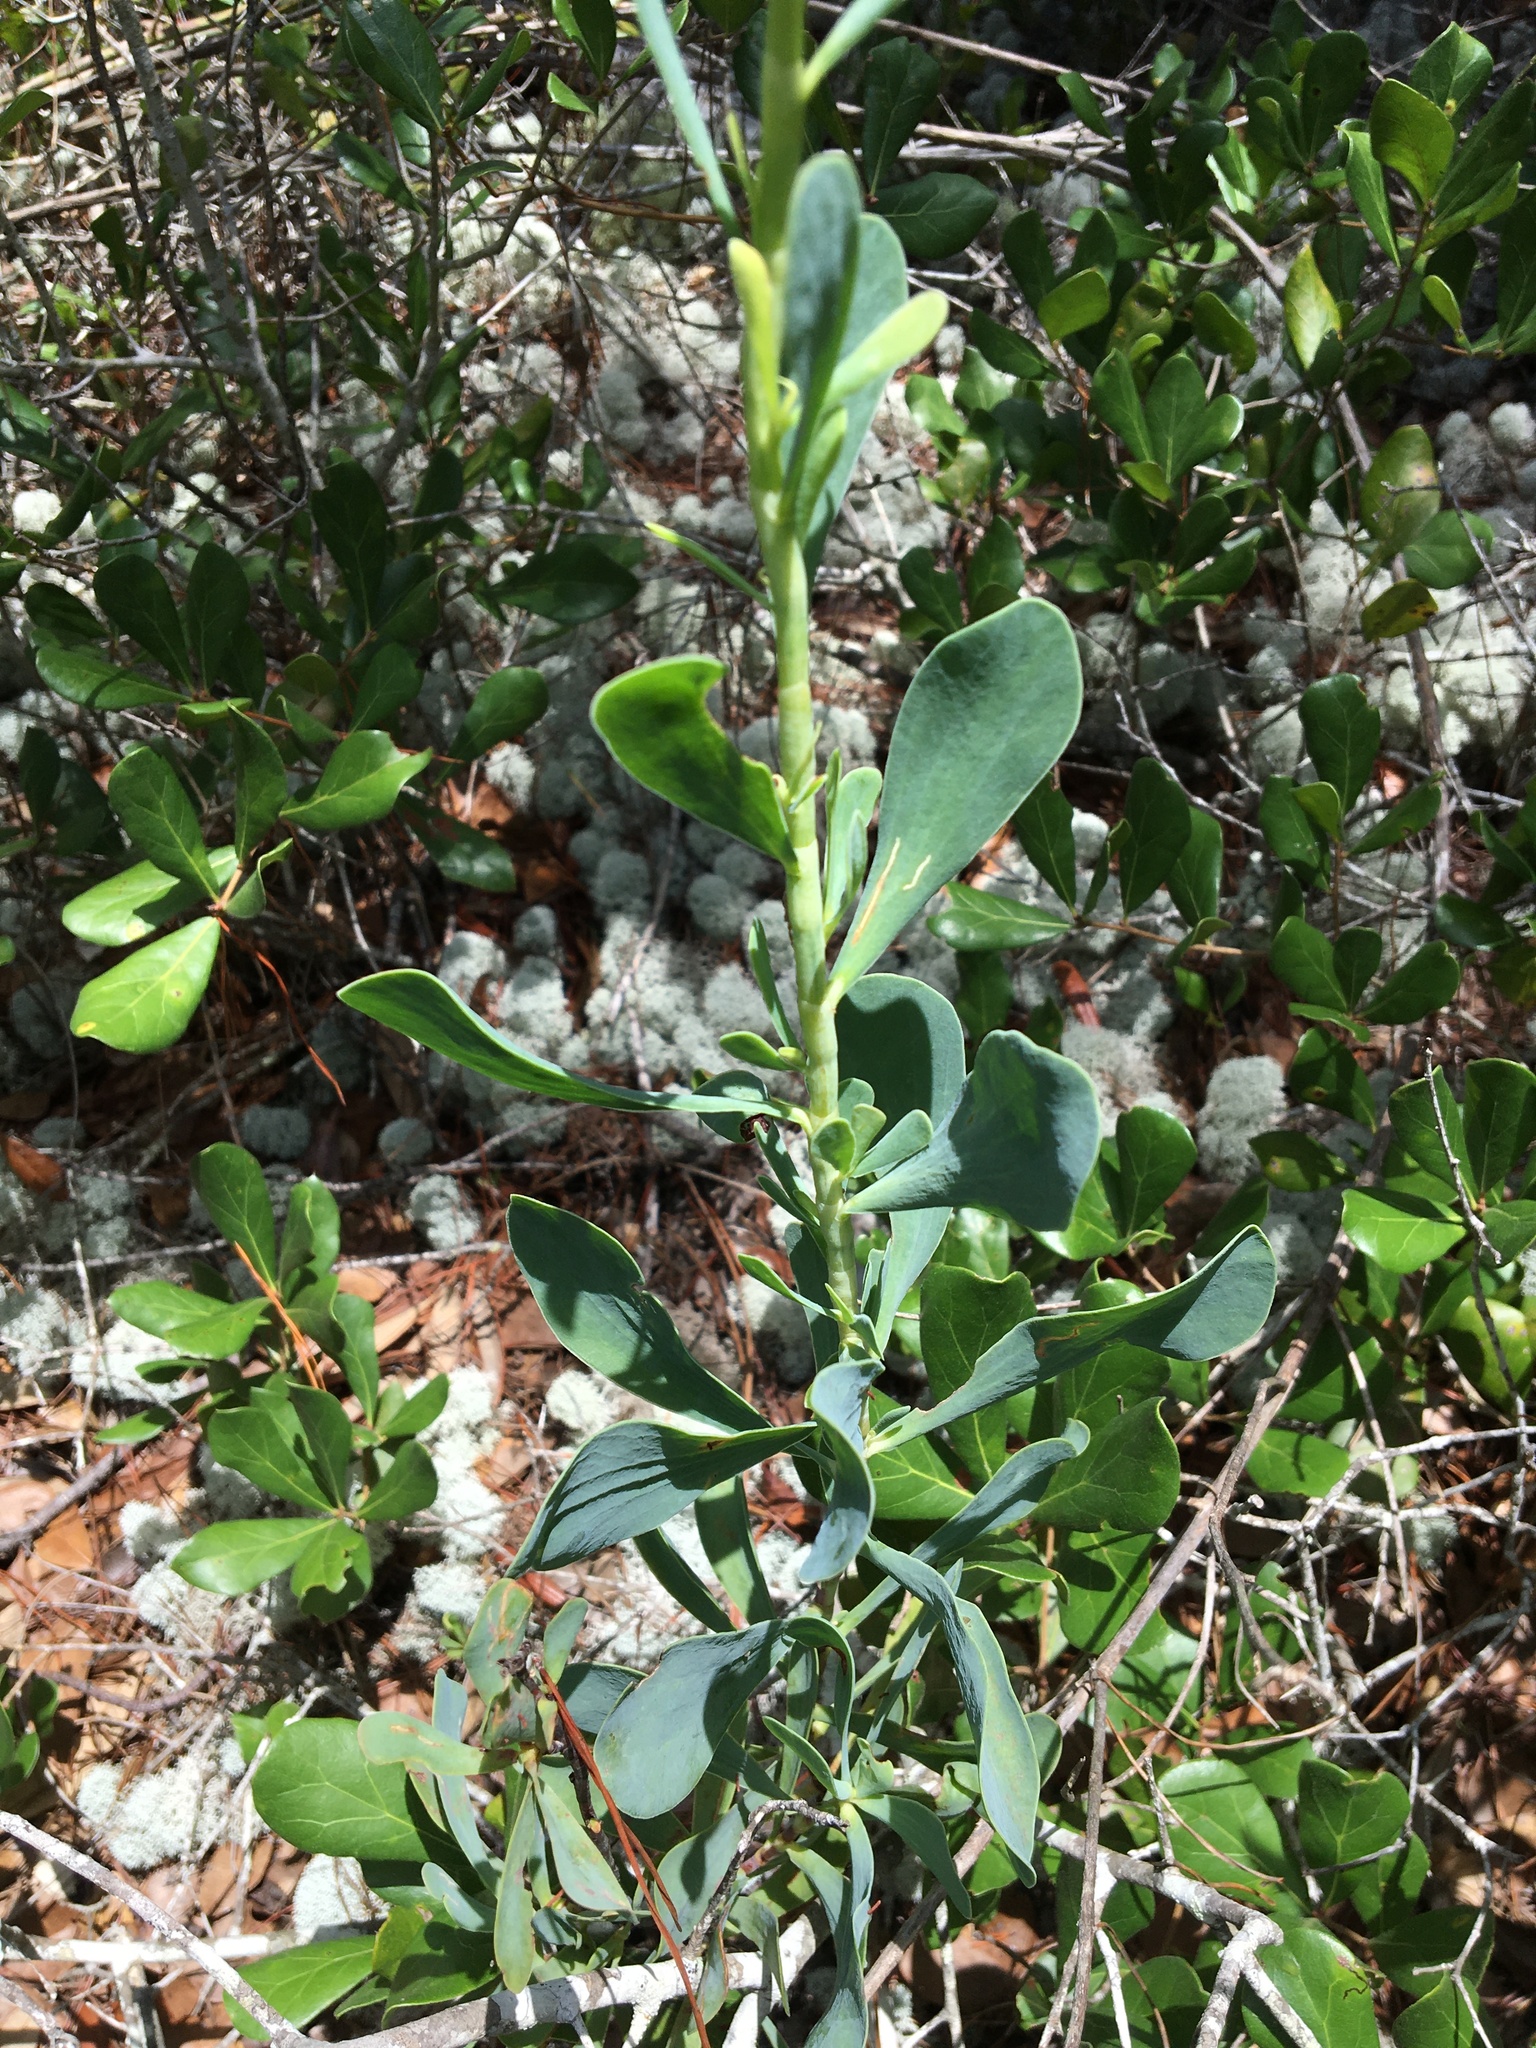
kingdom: Plantae
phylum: Tracheophyta
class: Magnoliopsida
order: Caryophyllales
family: Polygonaceae
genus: Polygonella
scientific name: Polygonella macrophylla
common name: Large-leaf wireweed
